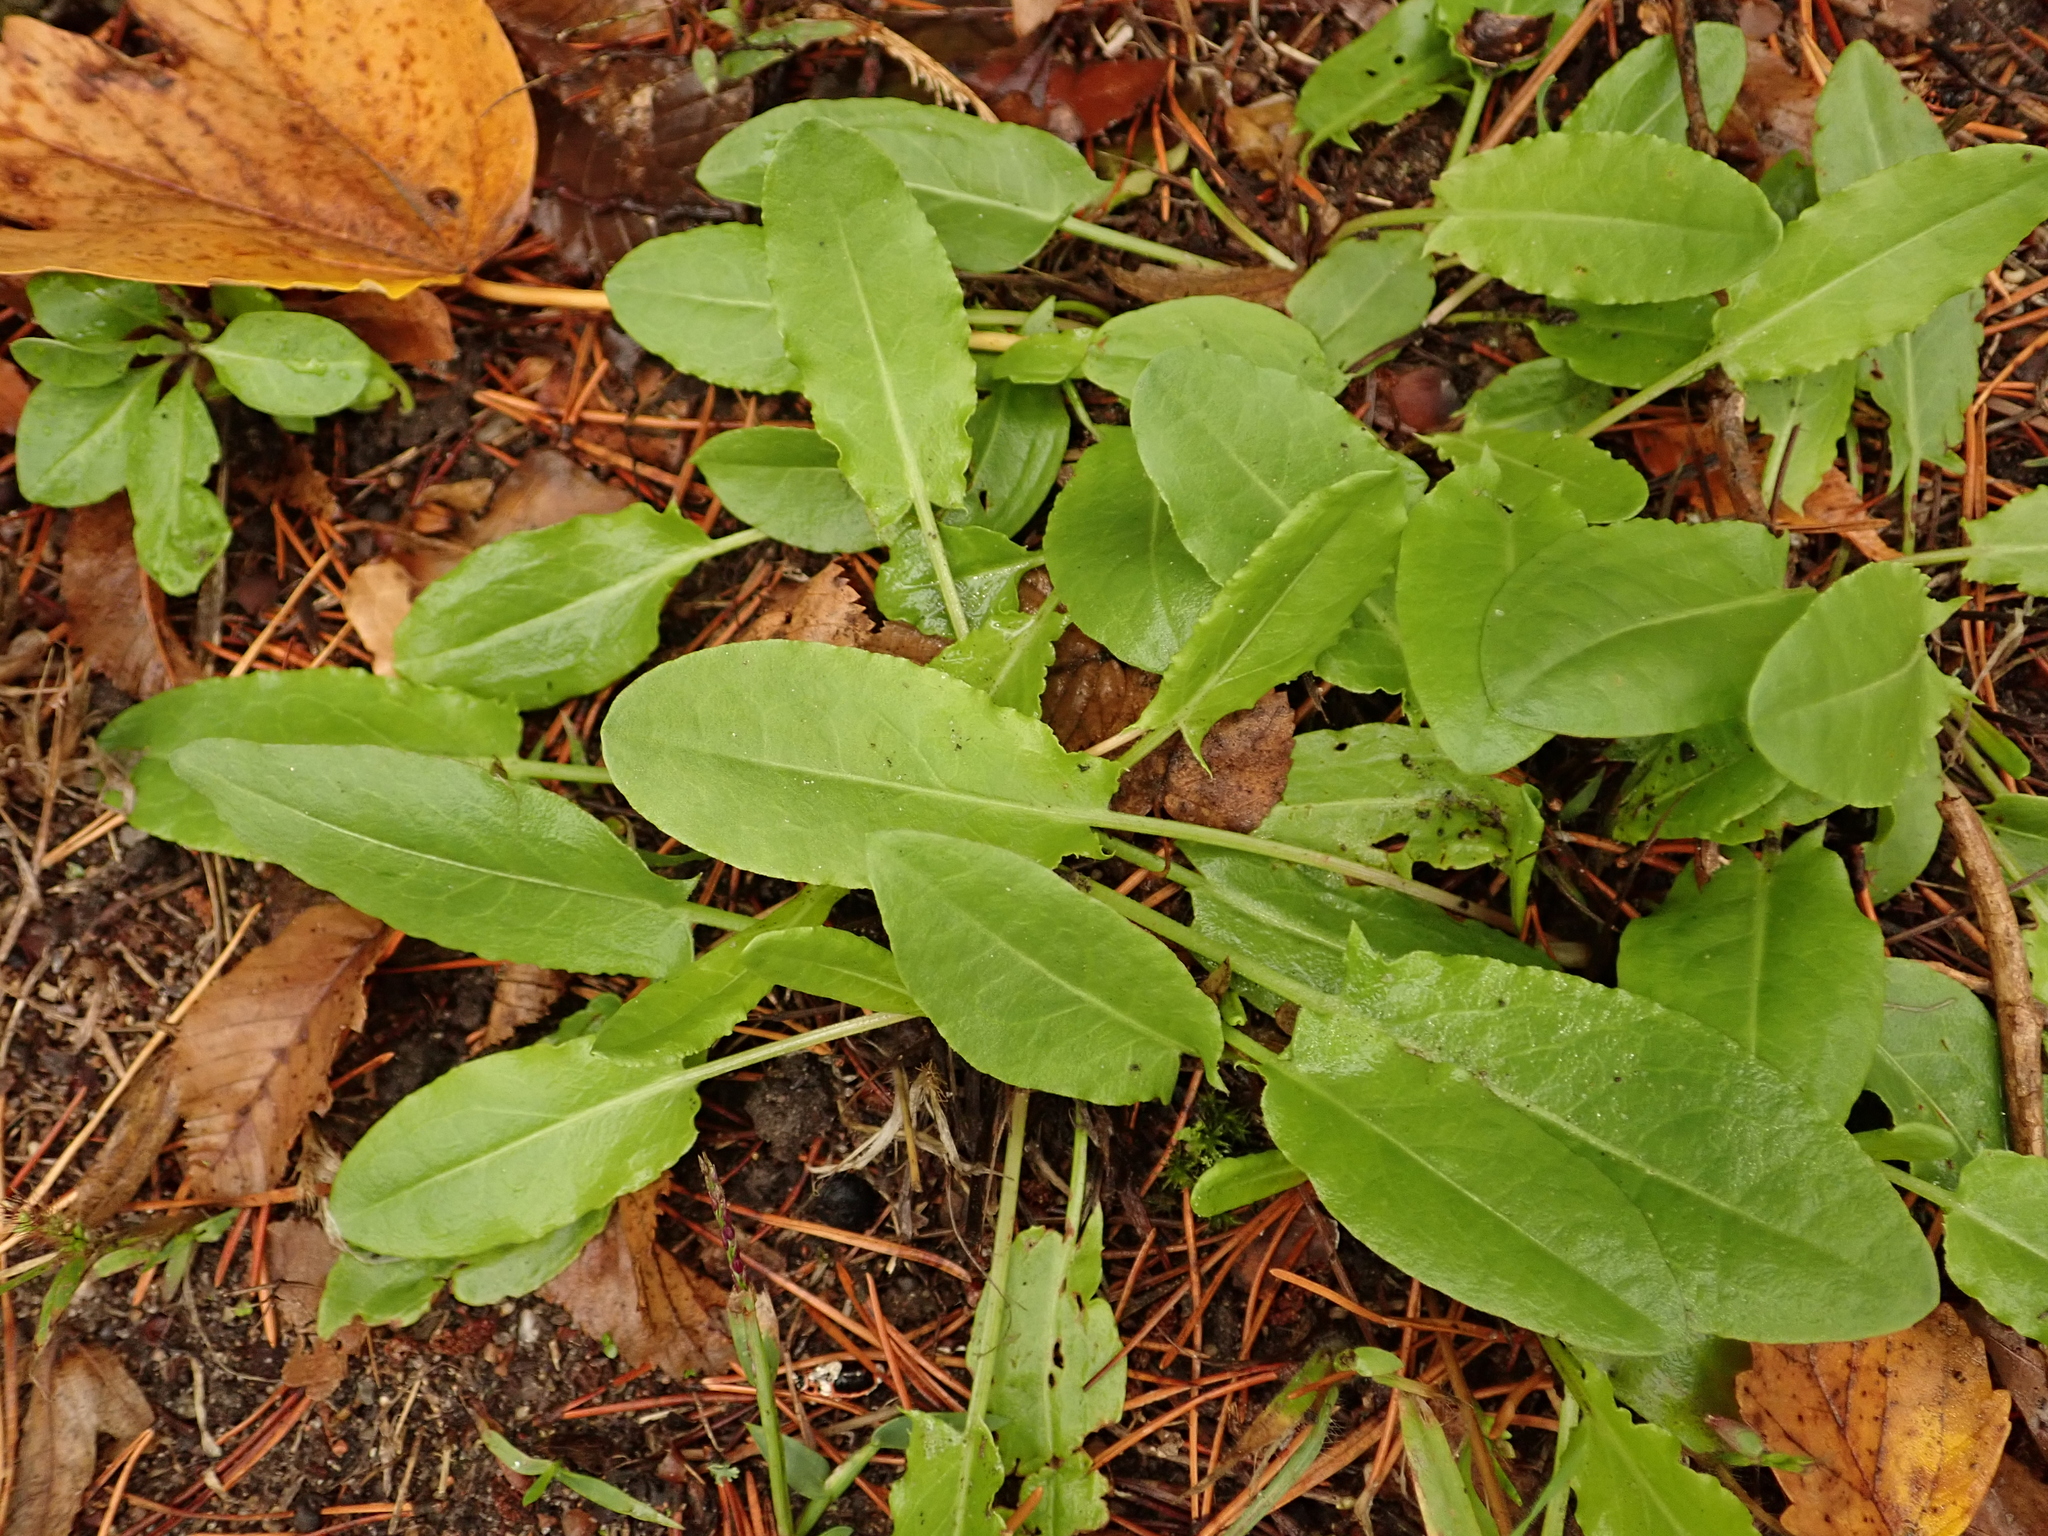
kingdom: Plantae
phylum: Tracheophyta
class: Magnoliopsida
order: Caryophyllales
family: Polygonaceae
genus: Rumex
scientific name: Rumex acetosa
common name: Garden sorrel
